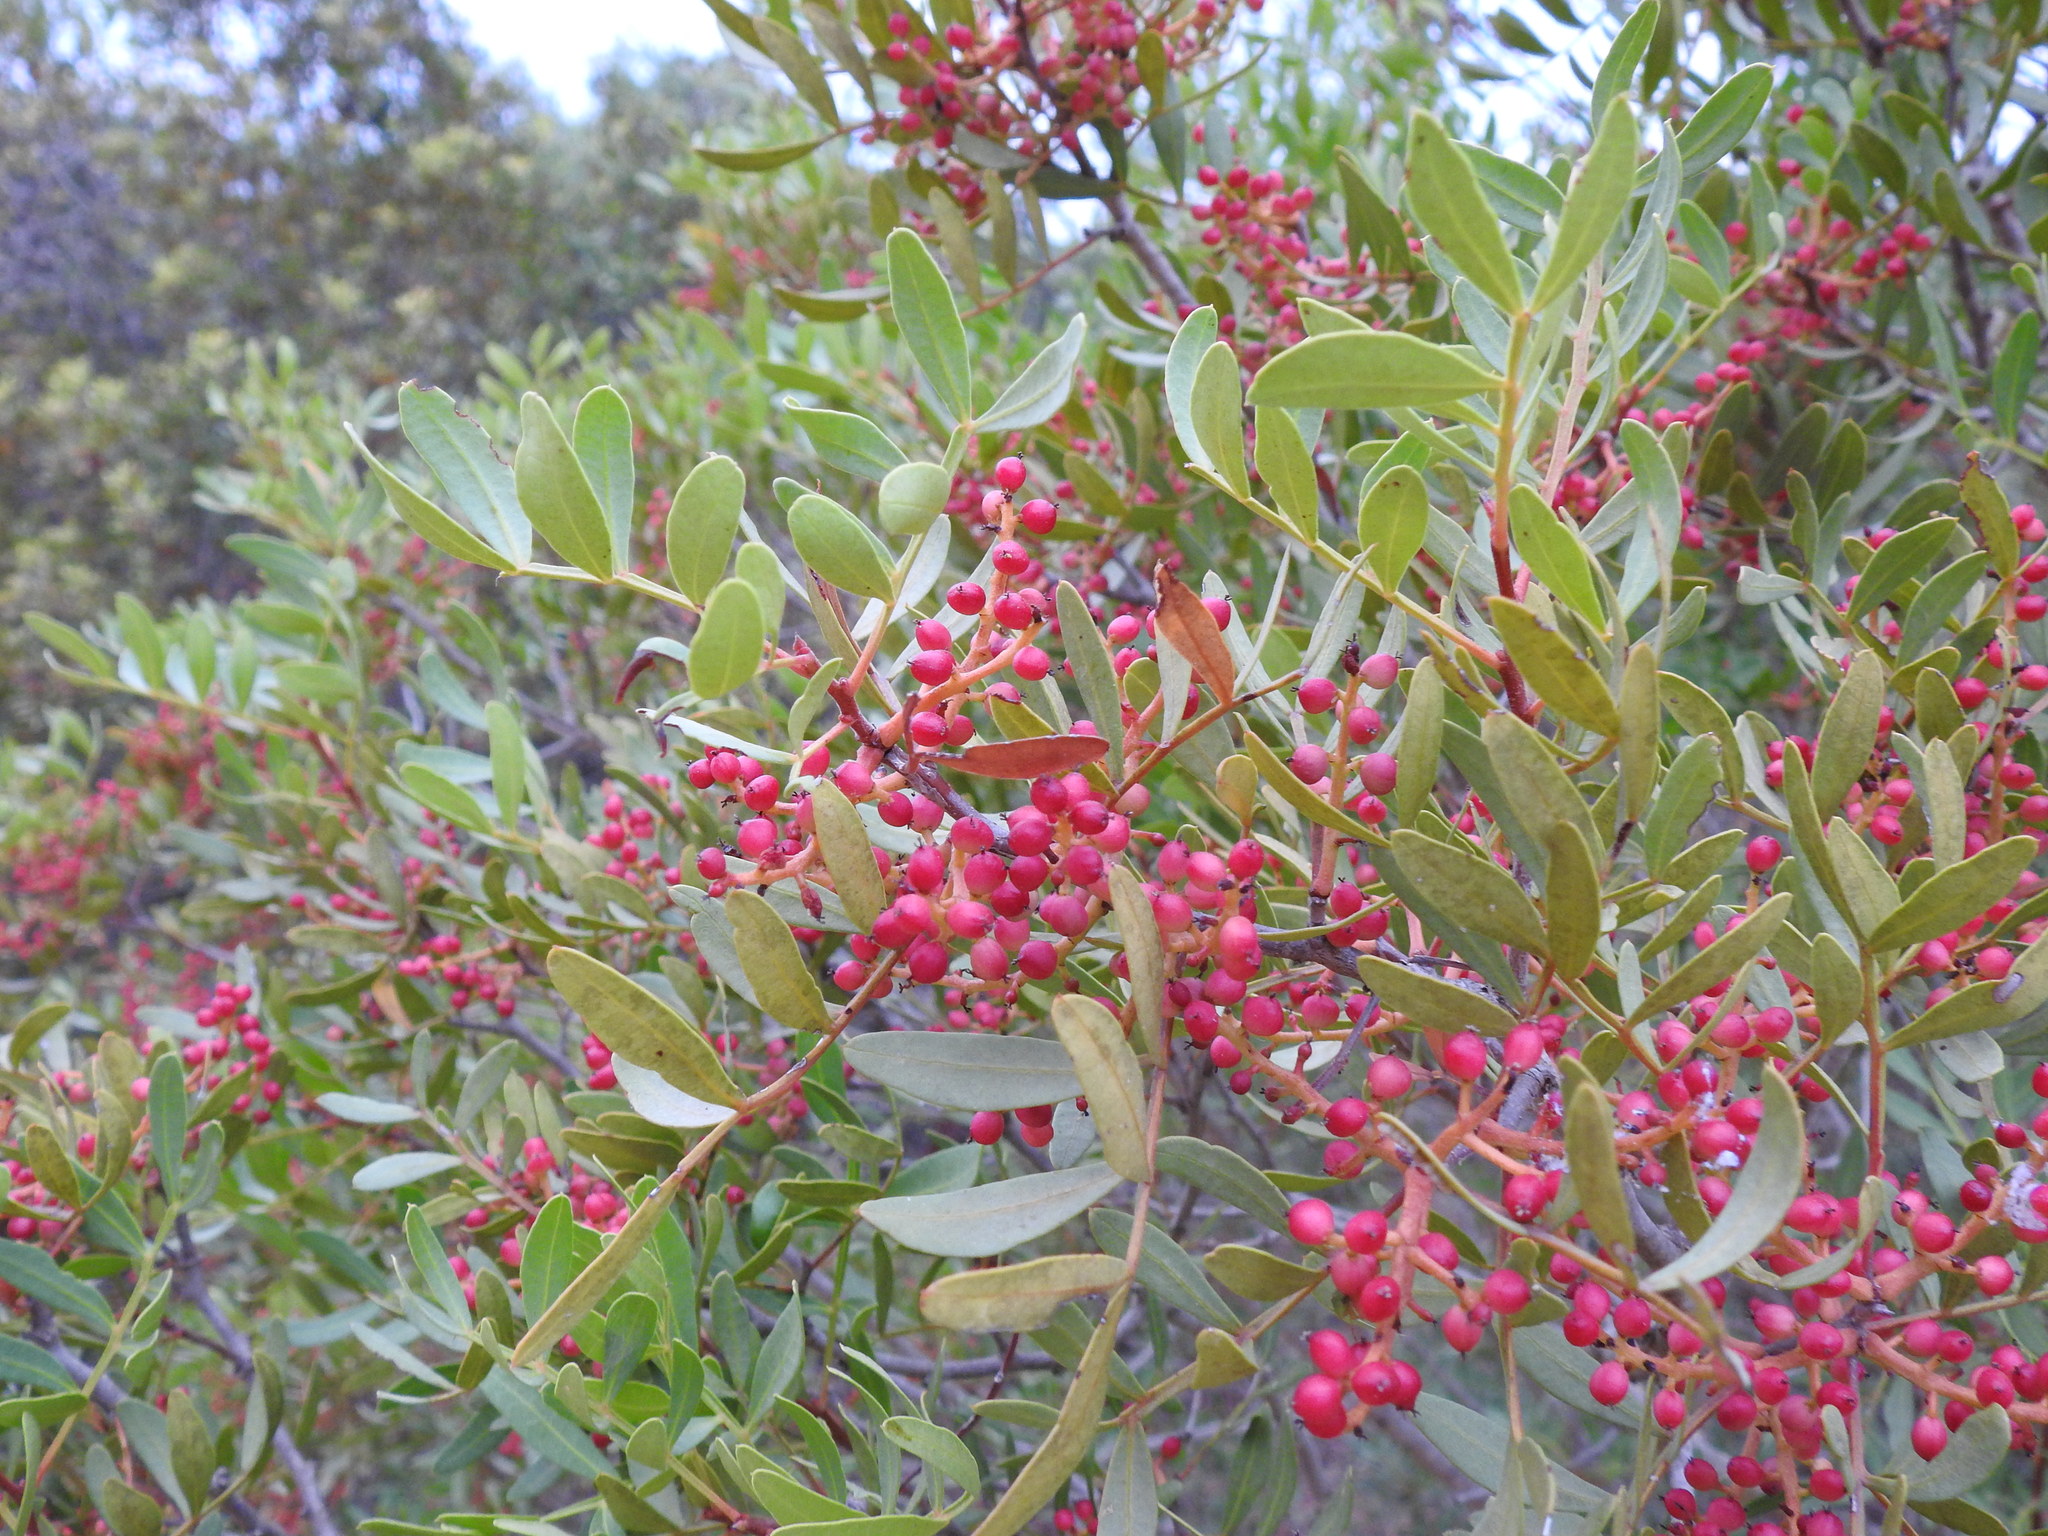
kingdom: Plantae
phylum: Tracheophyta
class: Magnoliopsida
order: Sapindales
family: Anacardiaceae
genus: Pistacia
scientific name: Pistacia lentiscus
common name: Lentisk
